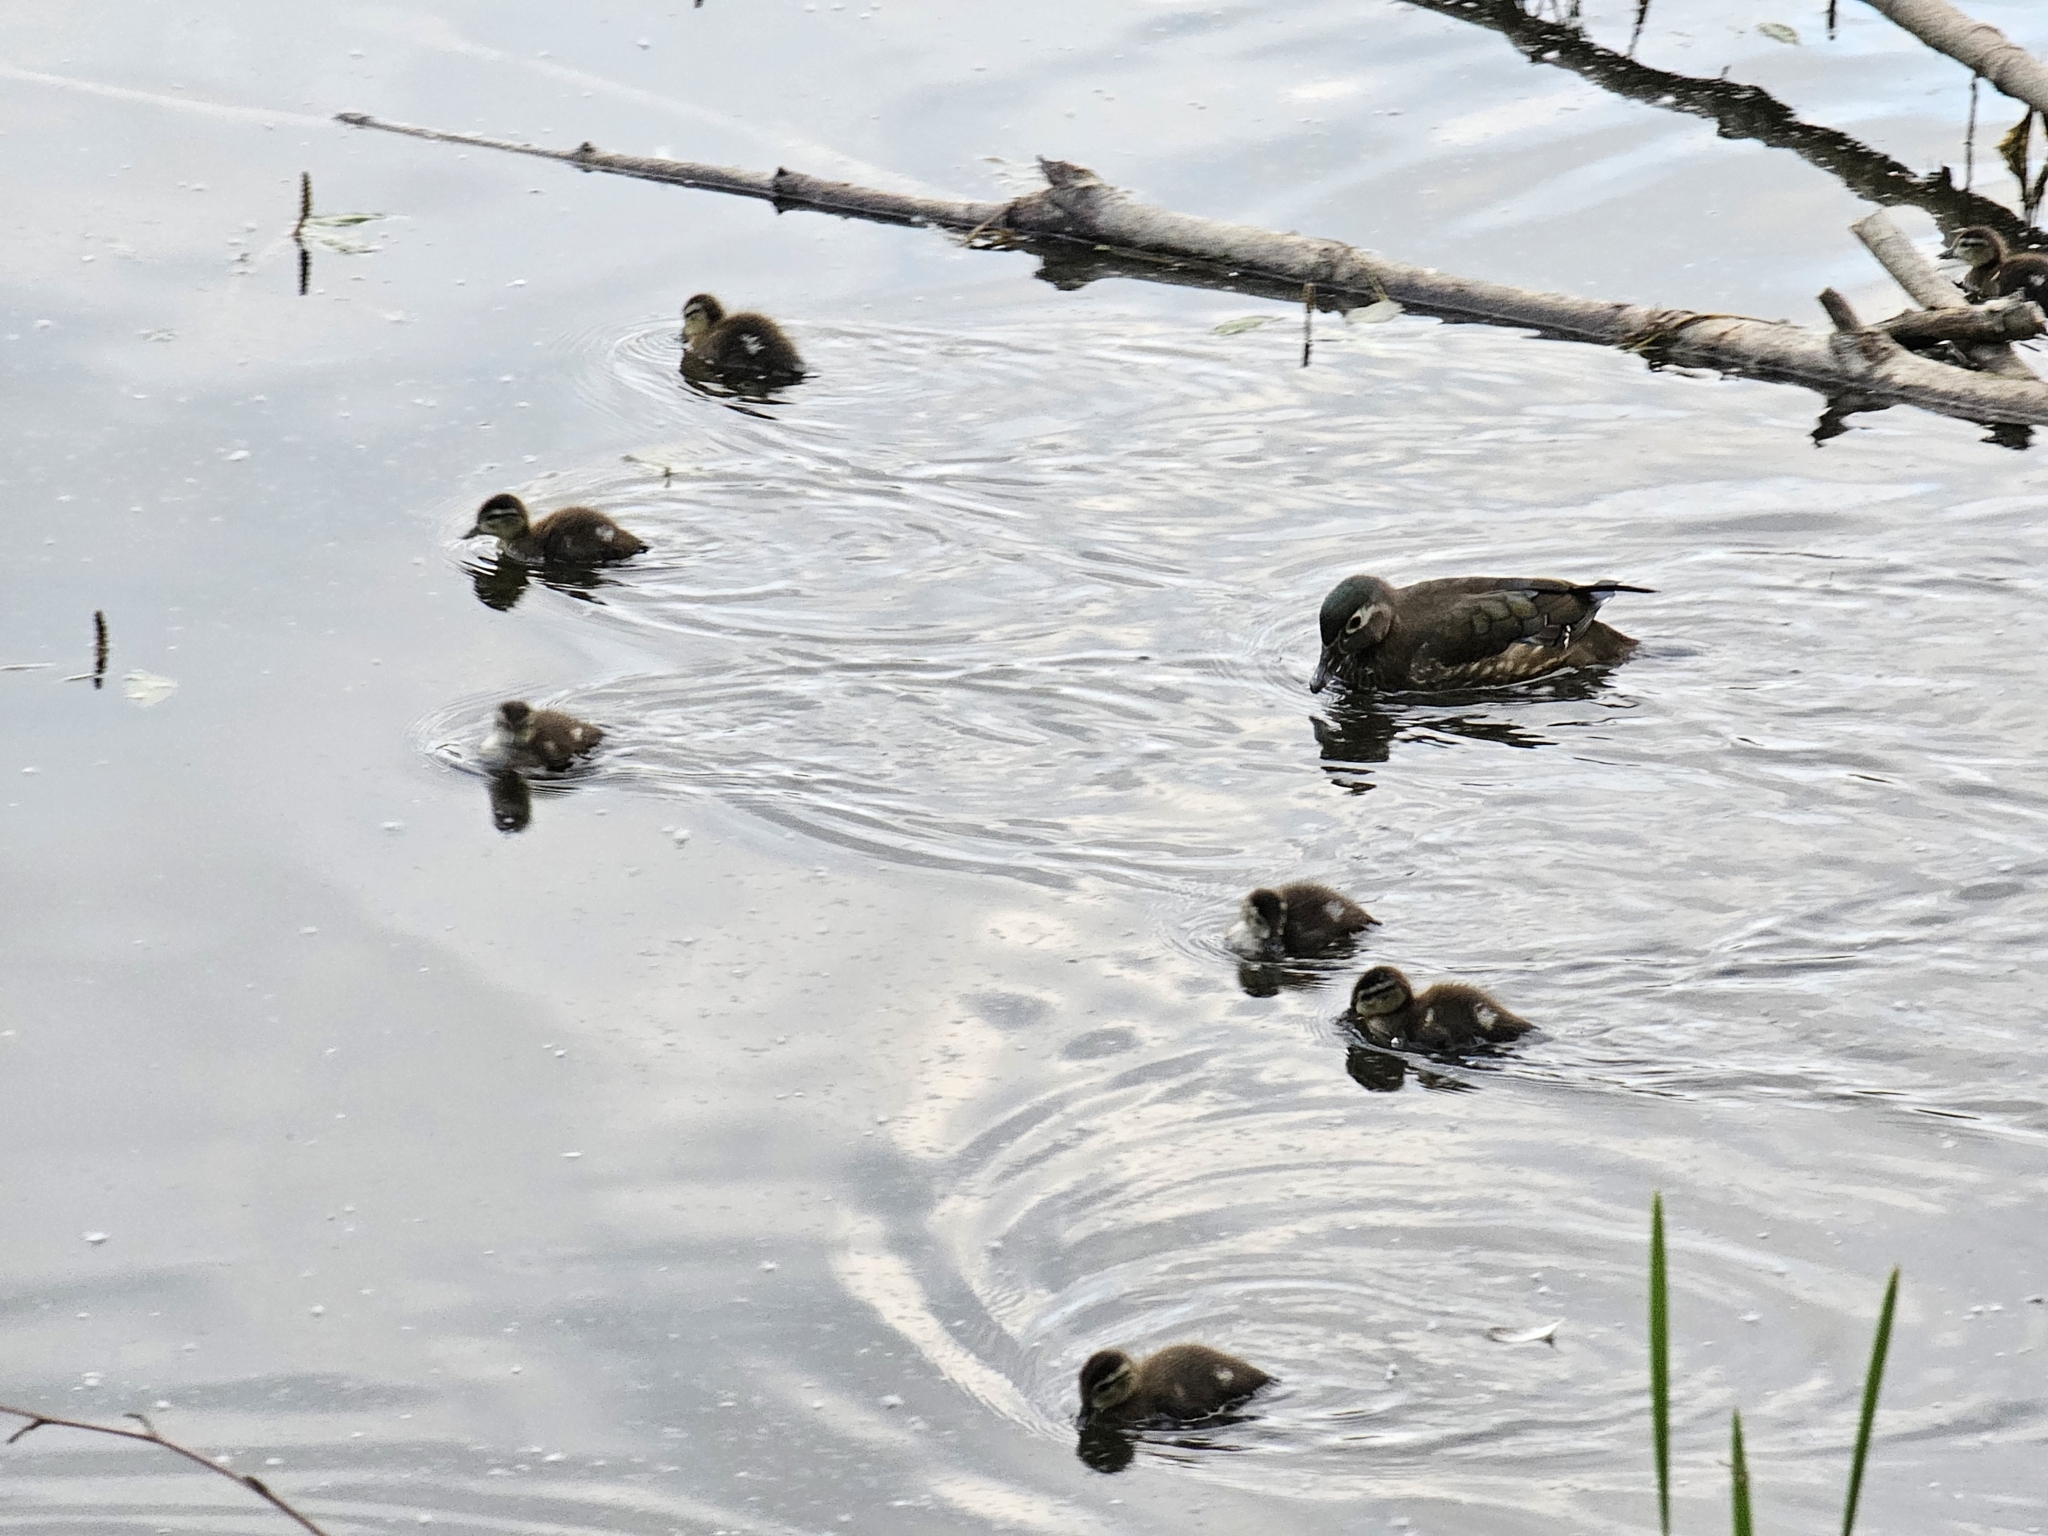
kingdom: Animalia
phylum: Chordata
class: Aves
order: Anseriformes
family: Anatidae
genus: Aix
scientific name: Aix sponsa
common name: Wood duck
